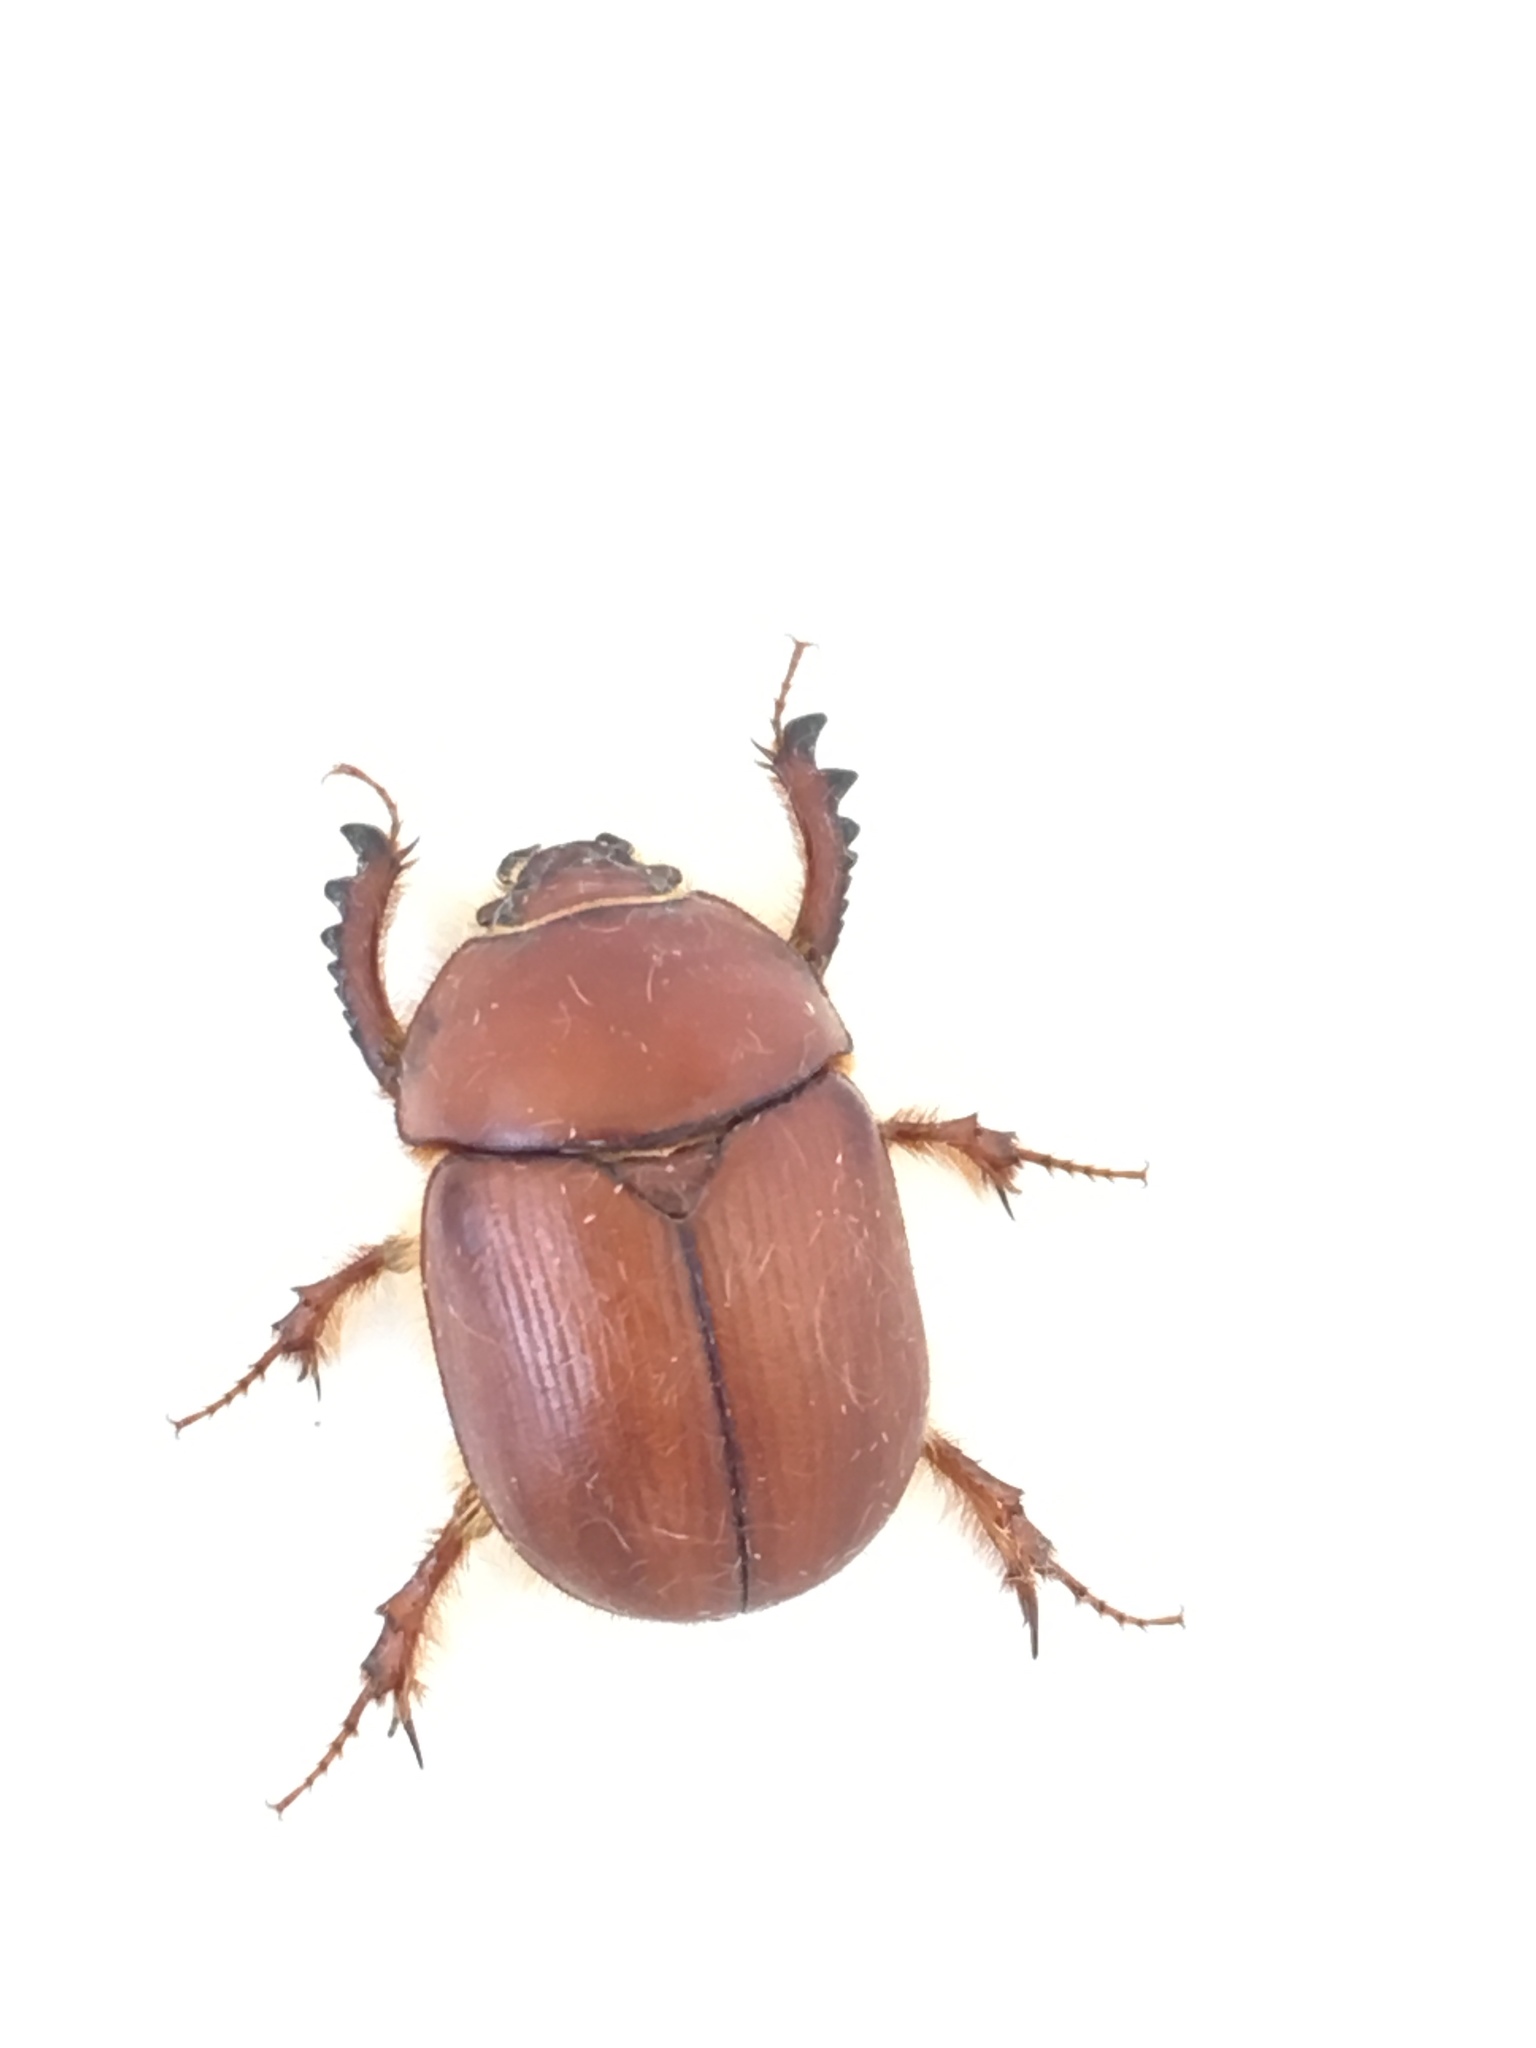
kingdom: Animalia
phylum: Arthropoda
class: Insecta
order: Coleoptera
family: Geotrupidae
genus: Eubolbitus
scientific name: Eubolbitus radoszkovskii
